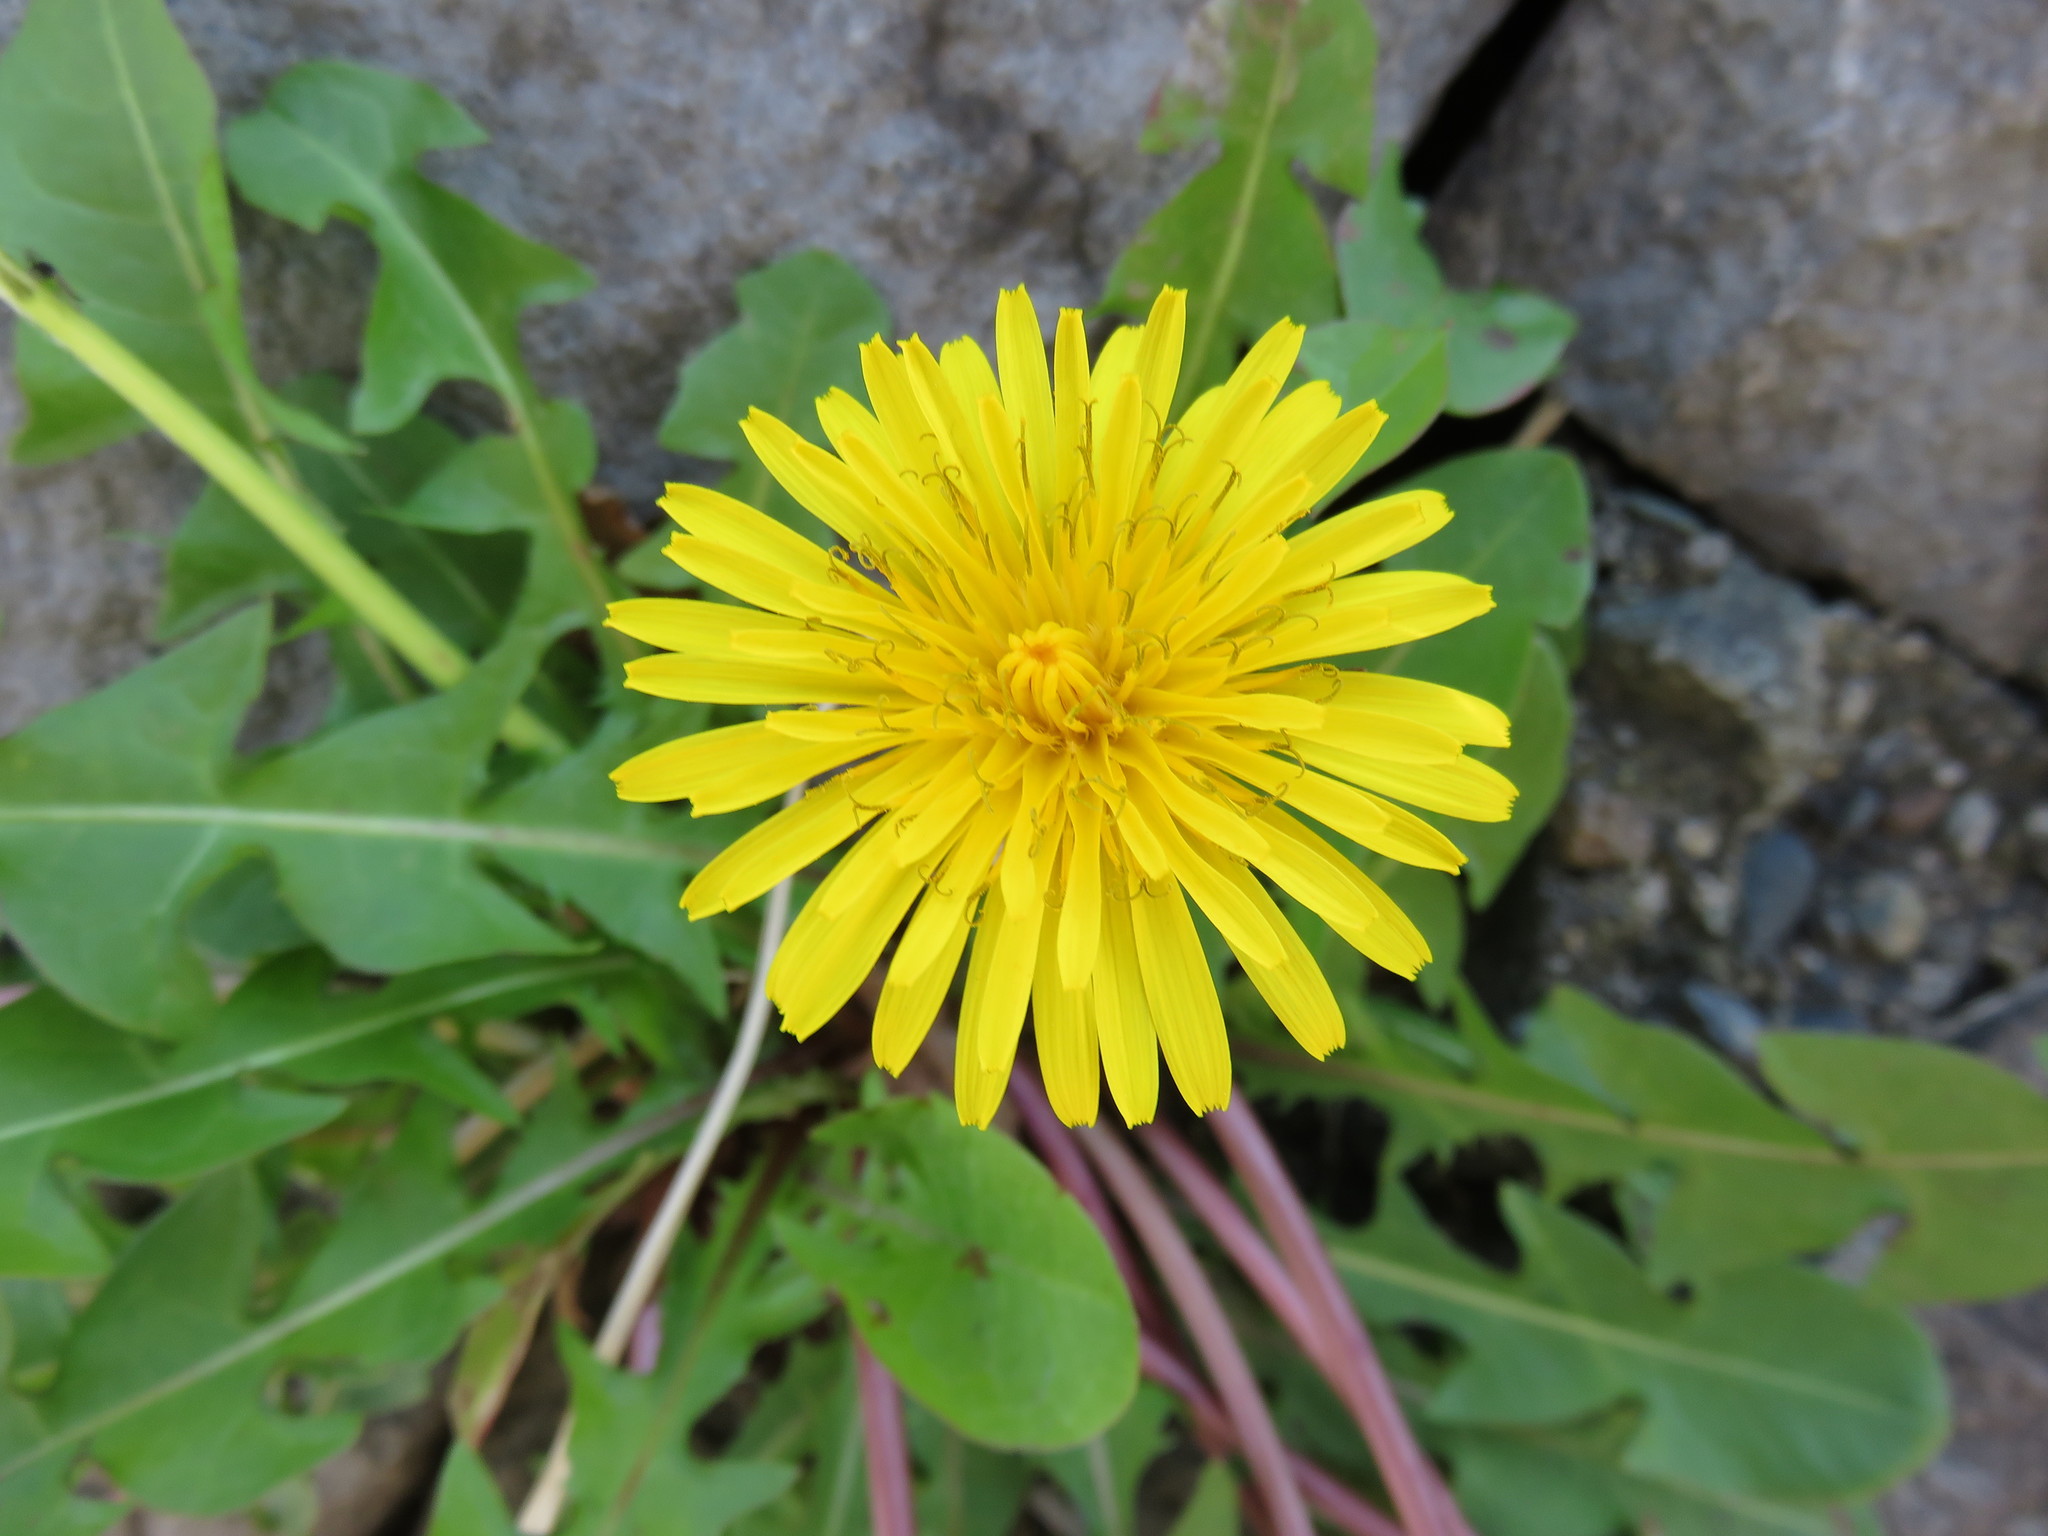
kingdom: Plantae
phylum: Tracheophyta
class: Magnoliopsida
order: Asterales
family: Asteraceae
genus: Taraxacum
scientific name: Taraxacum officinale
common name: Common dandelion
